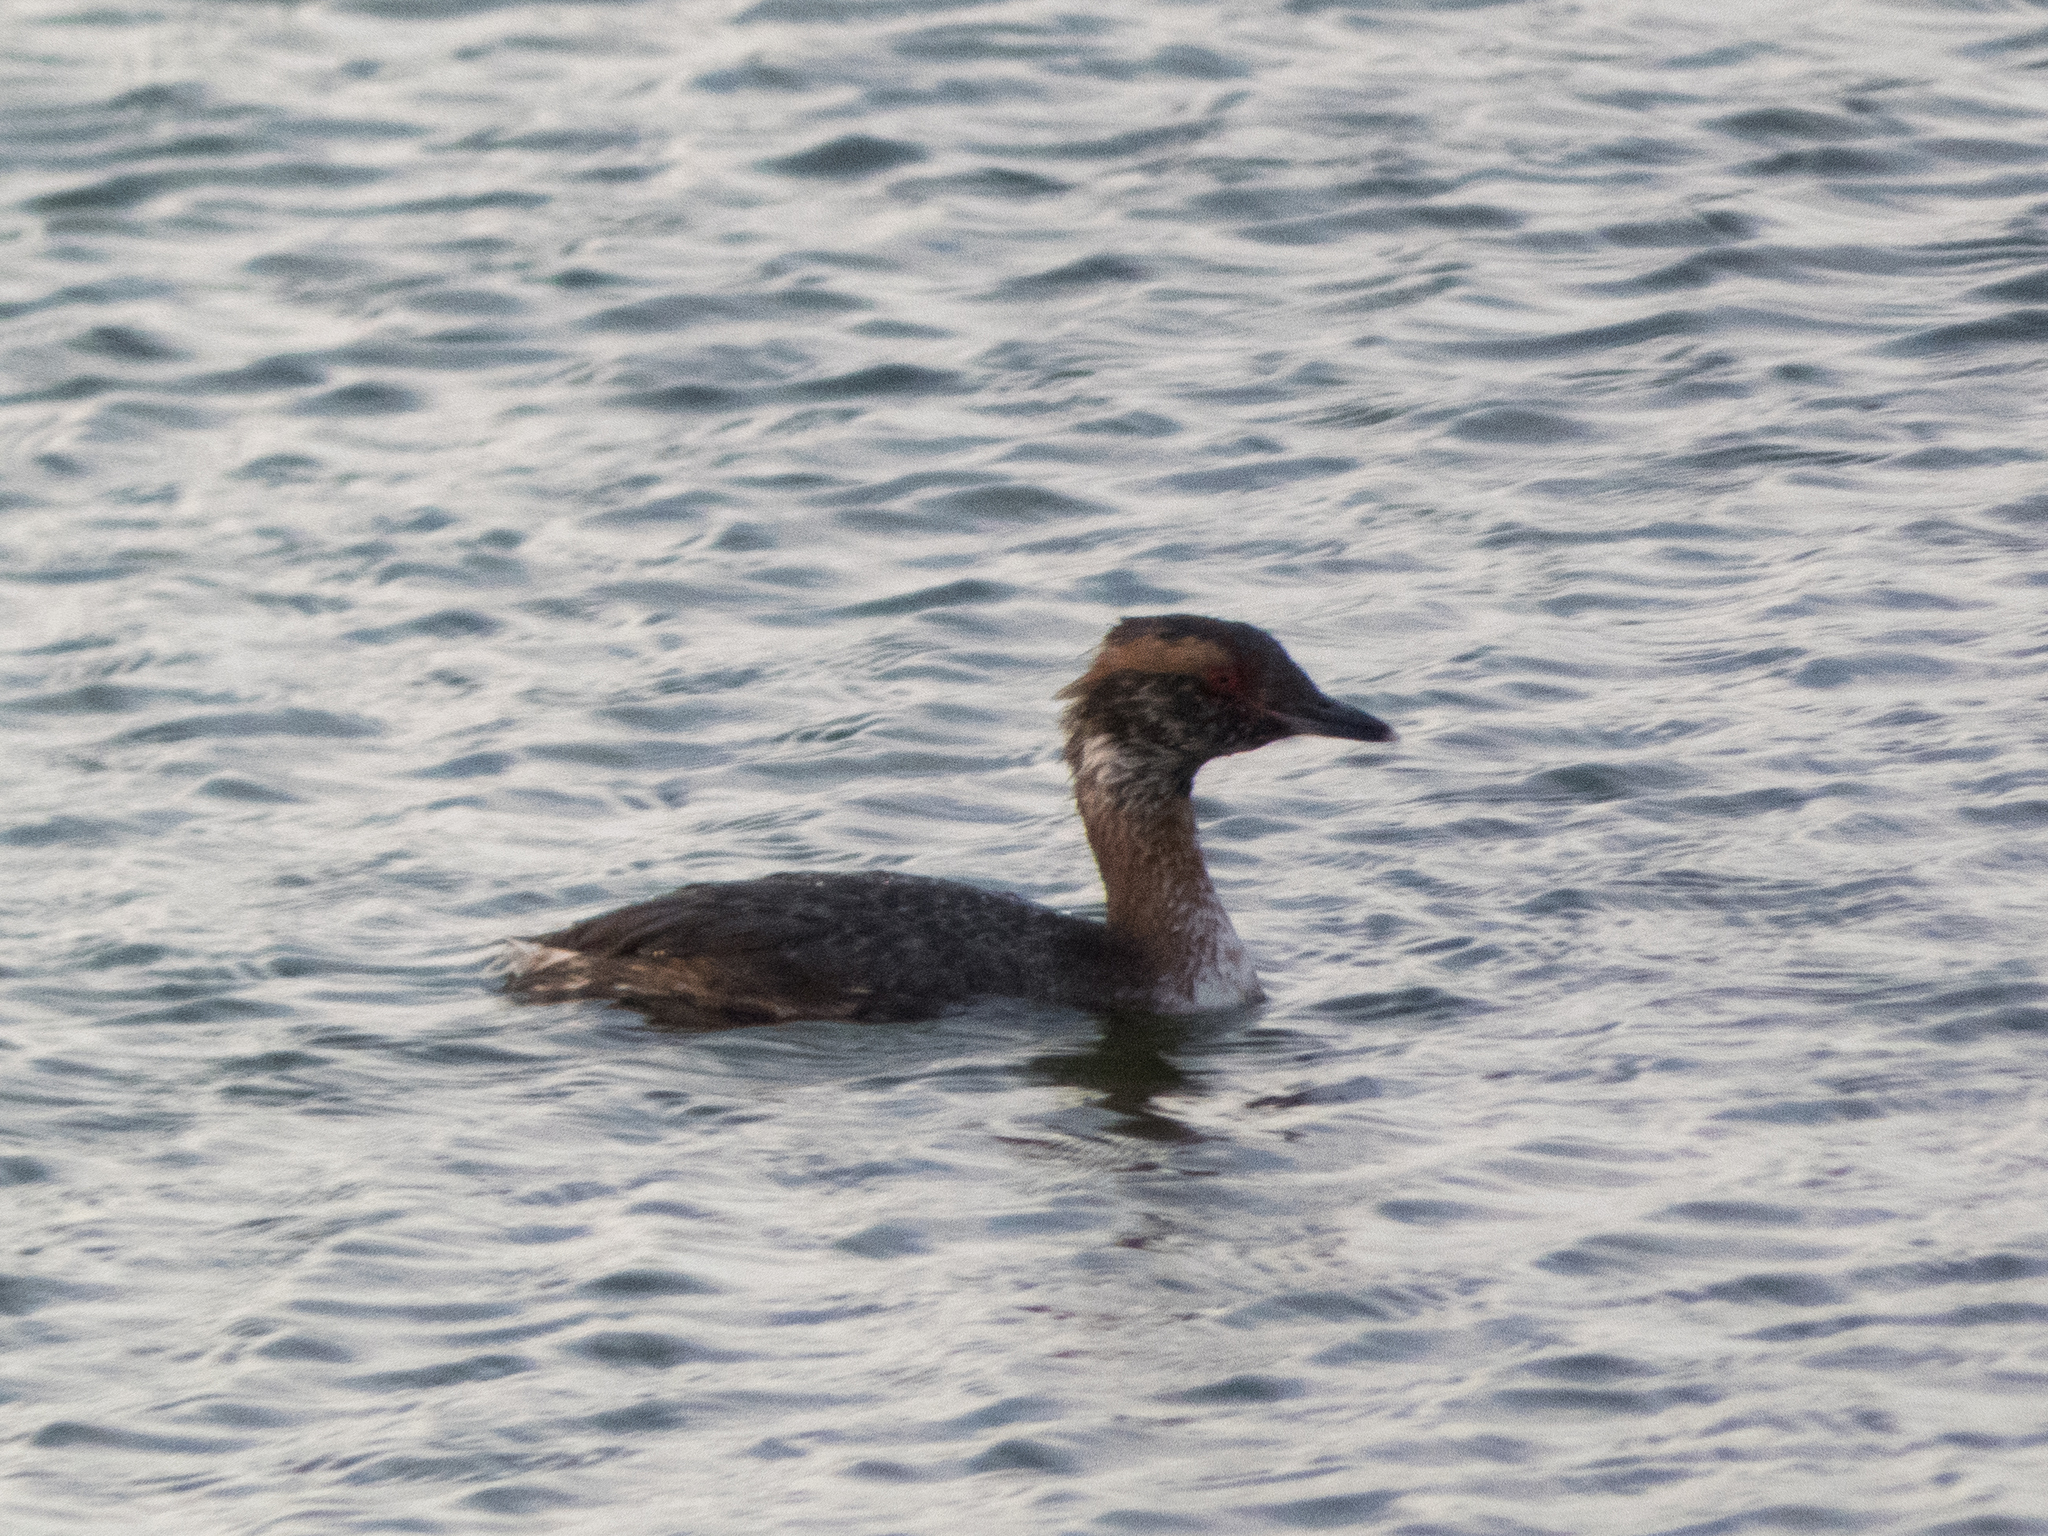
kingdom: Animalia
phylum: Chordata
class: Aves
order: Podicipediformes
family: Podicipedidae
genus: Podiceps
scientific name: Podiceps auritus
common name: Horned grebe
